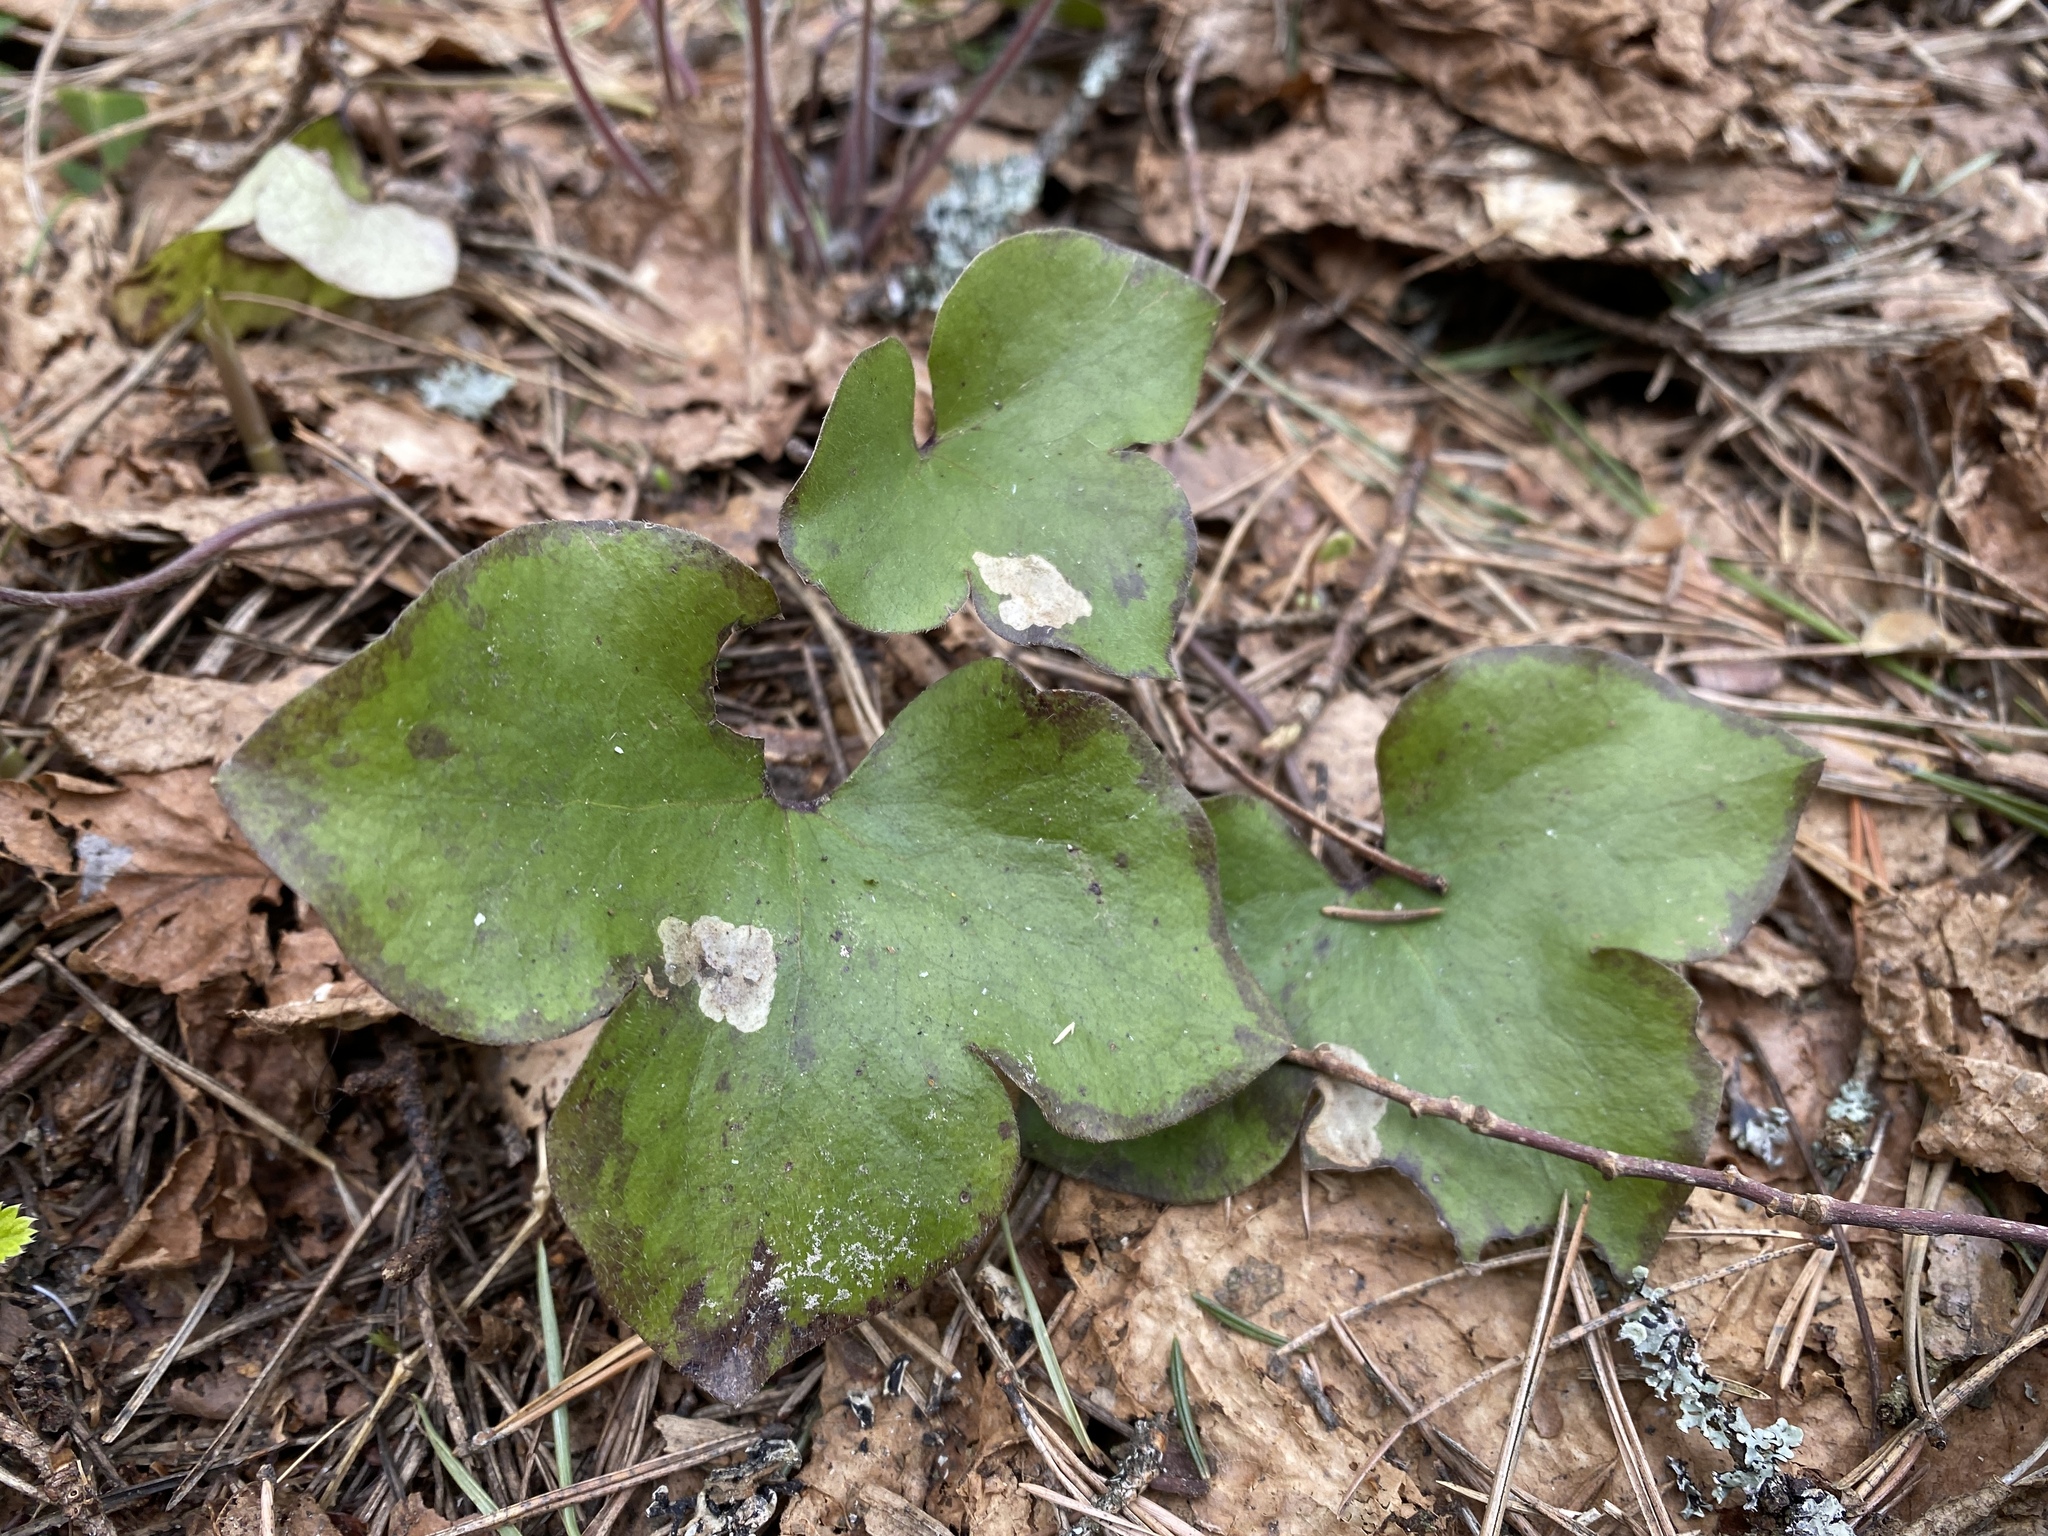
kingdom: Plantae
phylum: Tracheophyta
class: Magnoliopsida
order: Ranunculales
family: Ranunculaceae
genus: Hepatica
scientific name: Hepatica nobilis
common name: Liverleaf
